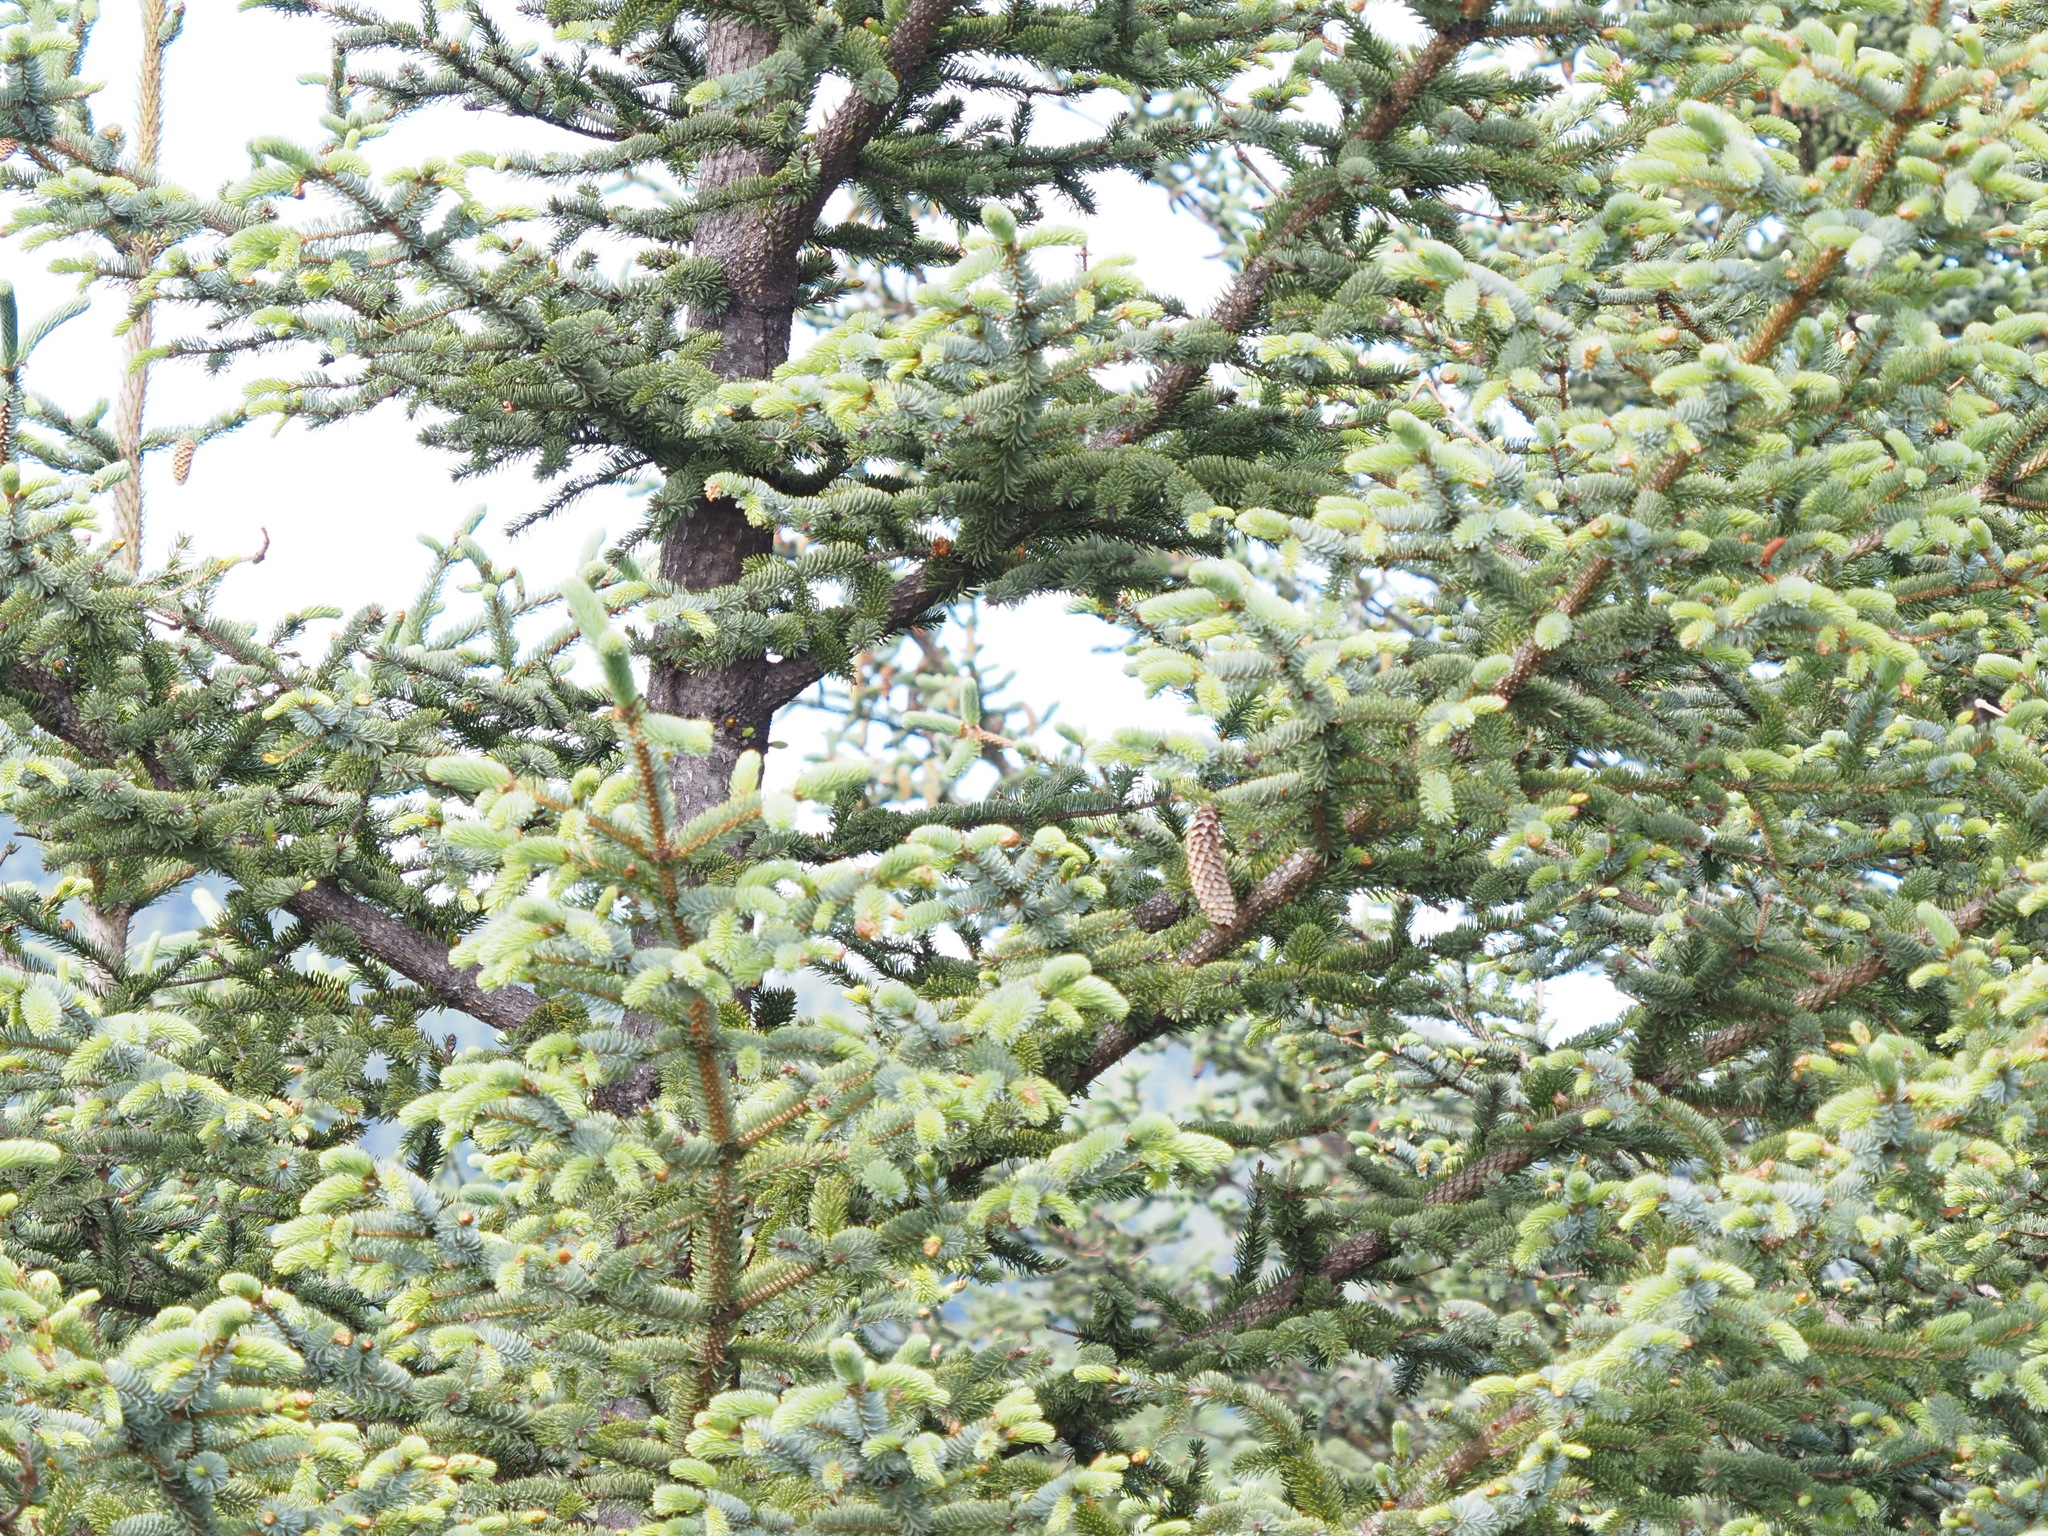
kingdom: Plantae
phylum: Tracheophyta
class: Pinopsida
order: Pinales
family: Pinaceae
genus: Picea
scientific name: Picea sitchensis
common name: Sitka spruce
